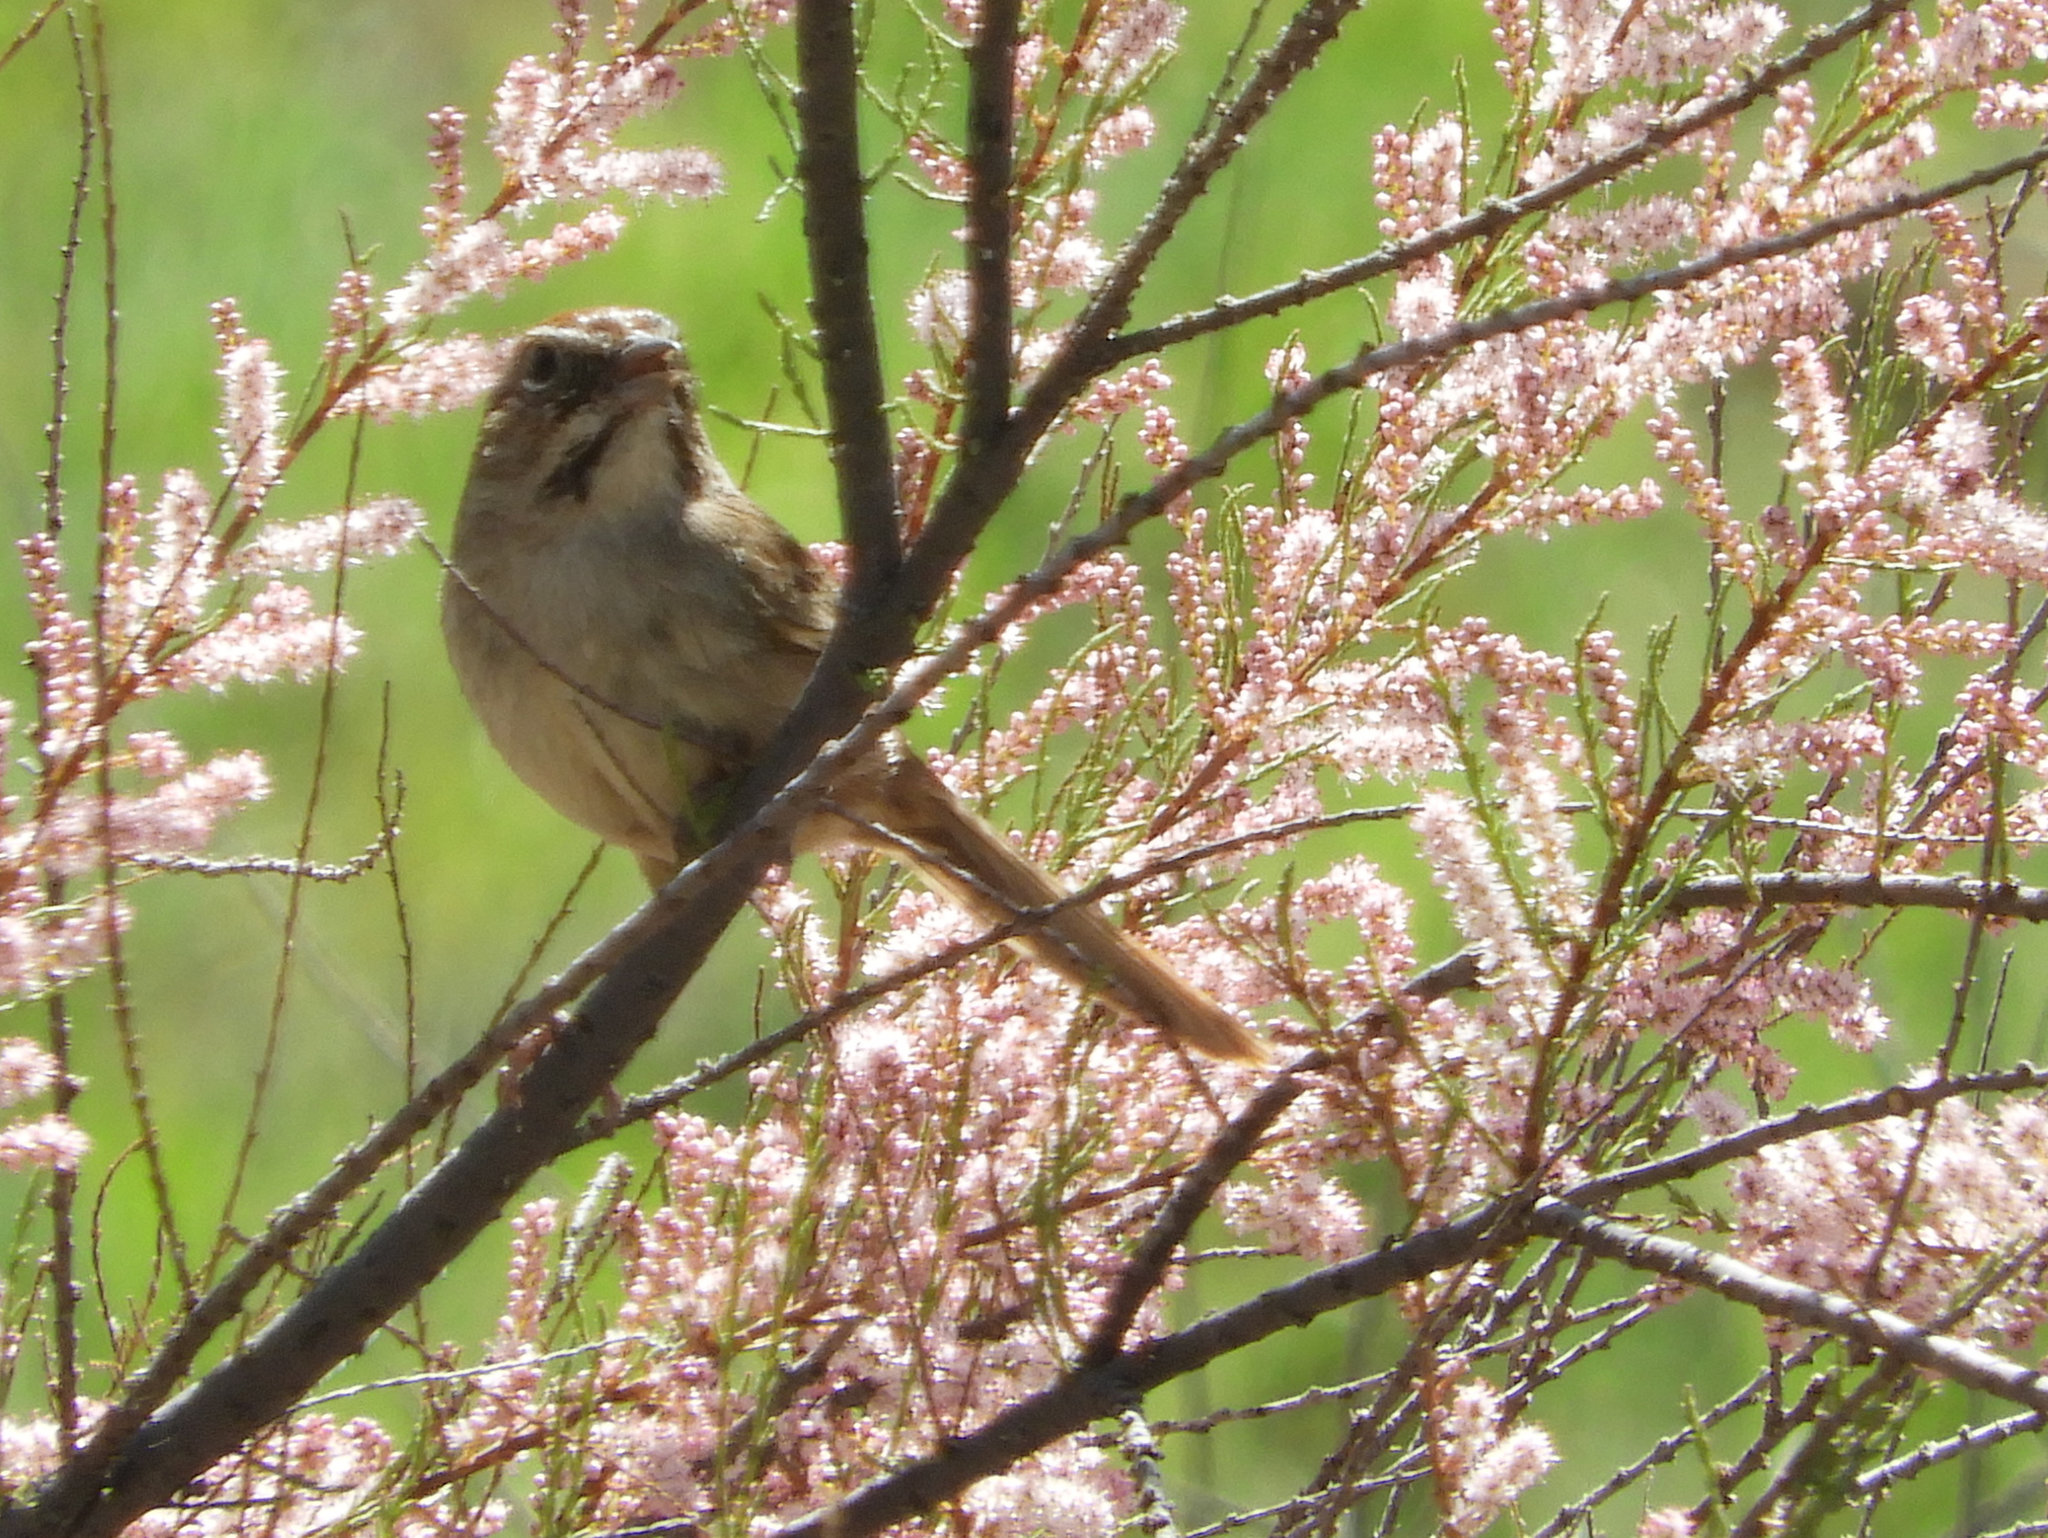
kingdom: Animalia
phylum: Chordata
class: Aves
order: Passeriformes
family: Passerellidae
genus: Aimophila
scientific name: Aimophila ruficeps
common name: Rufous-crowned sparrow
